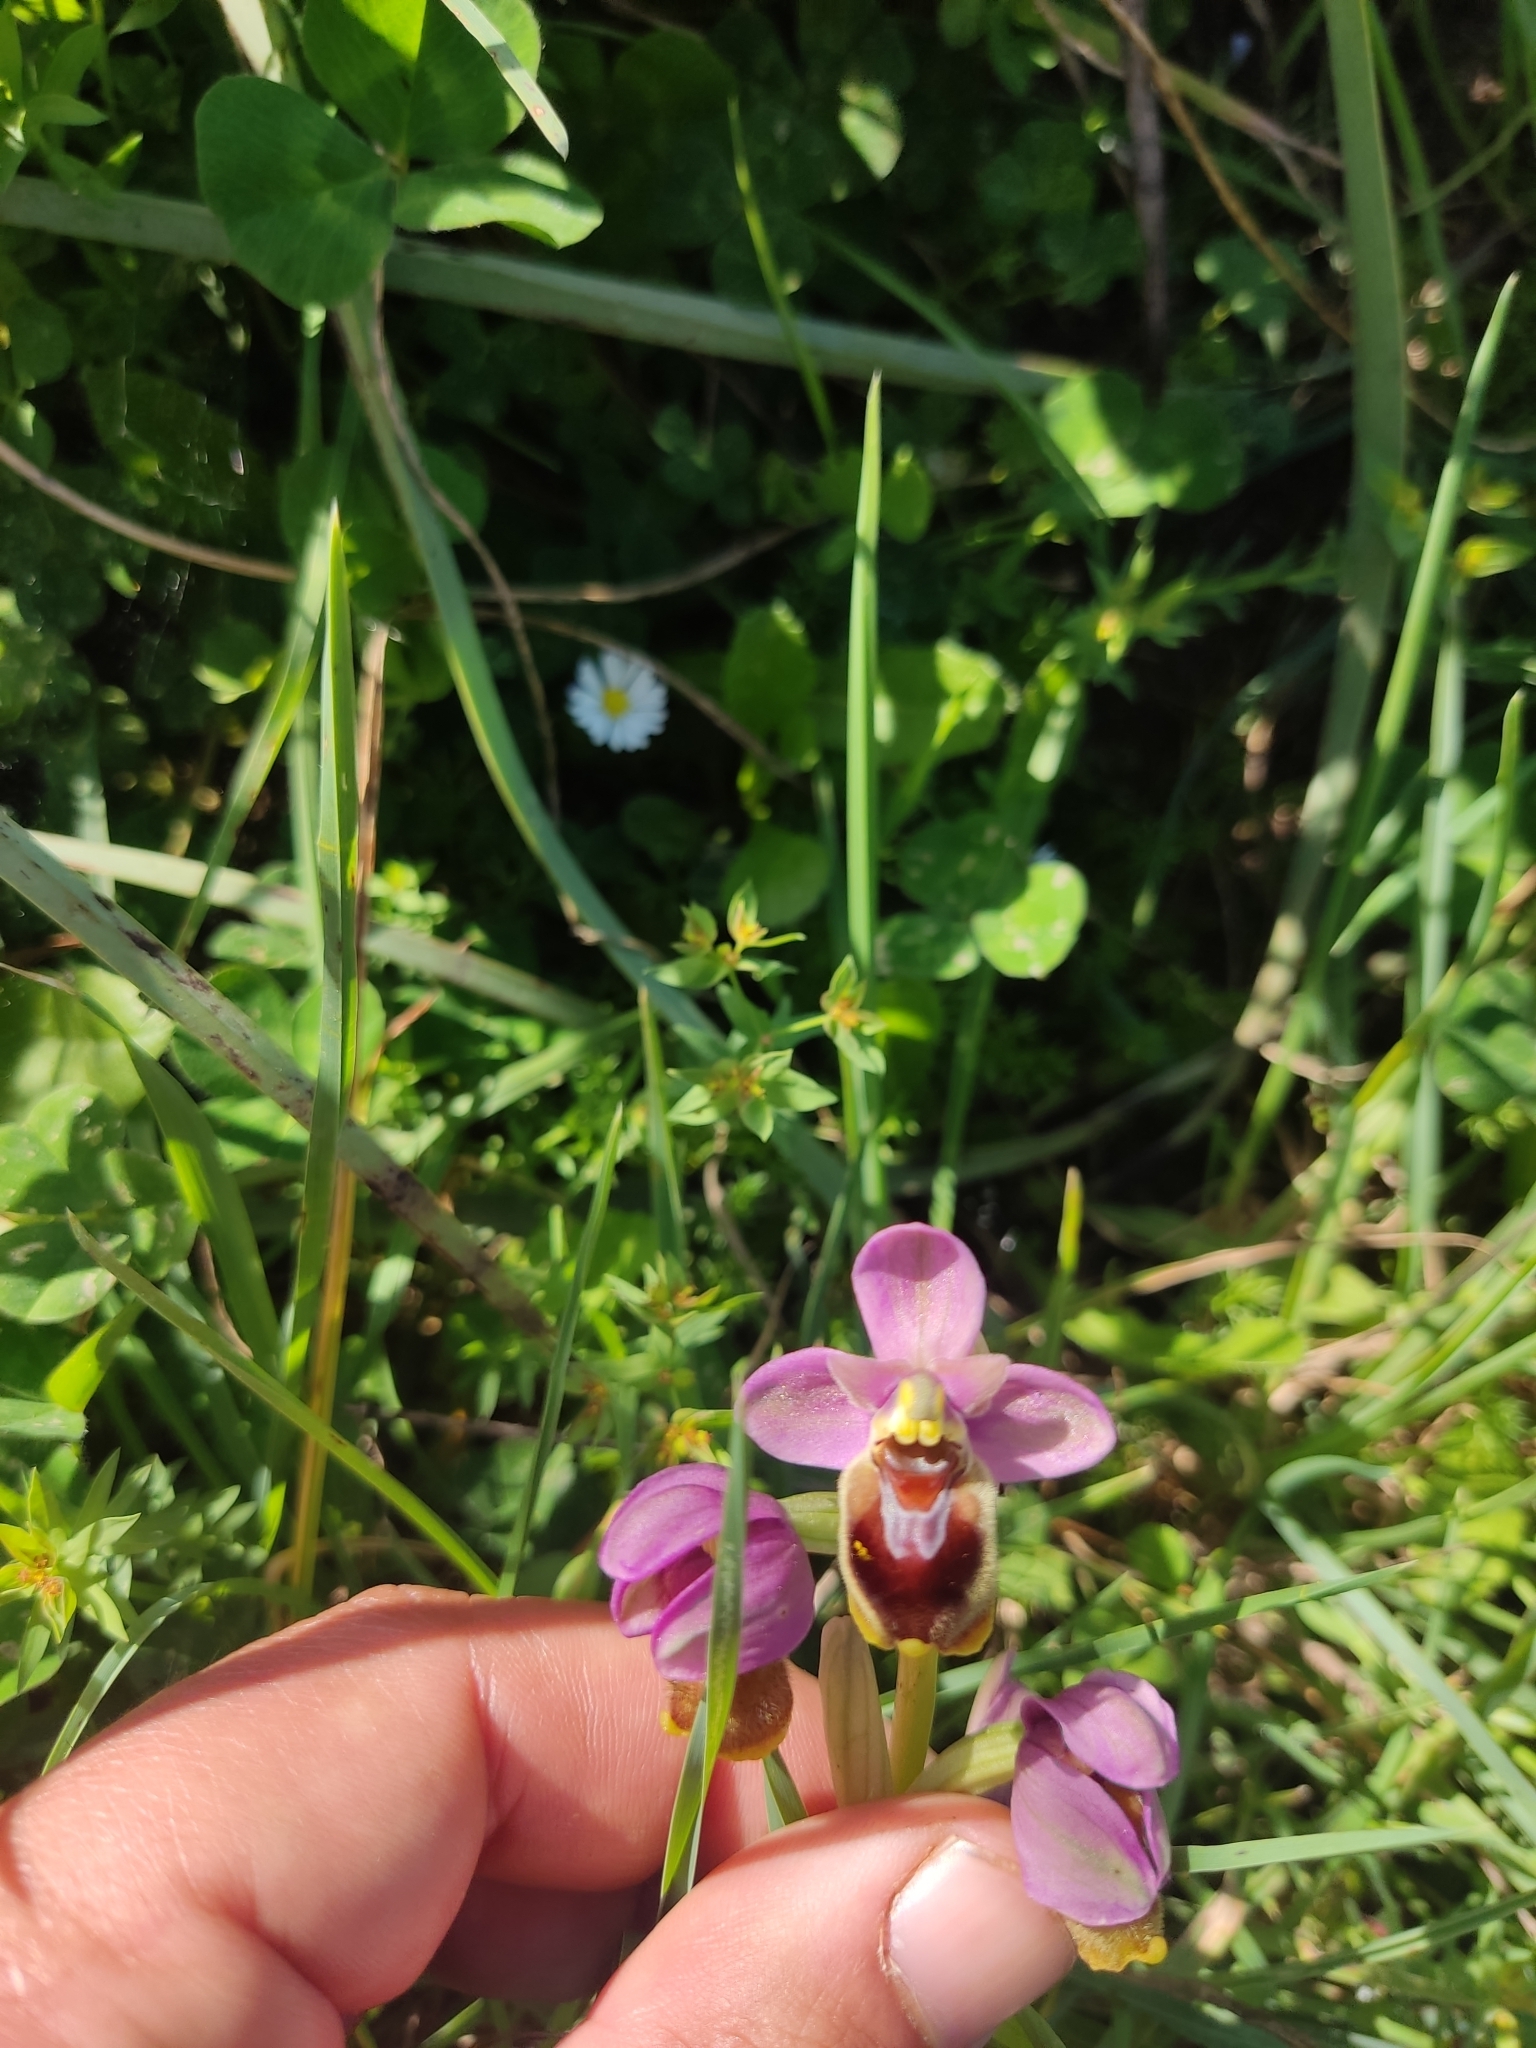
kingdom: Plantae
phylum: Tracheophyta
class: Liliopsida
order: Asparagales
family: Orchidaceae
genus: Ophrys
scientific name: Ophrys tenthredinifera
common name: Sawfly orchid
